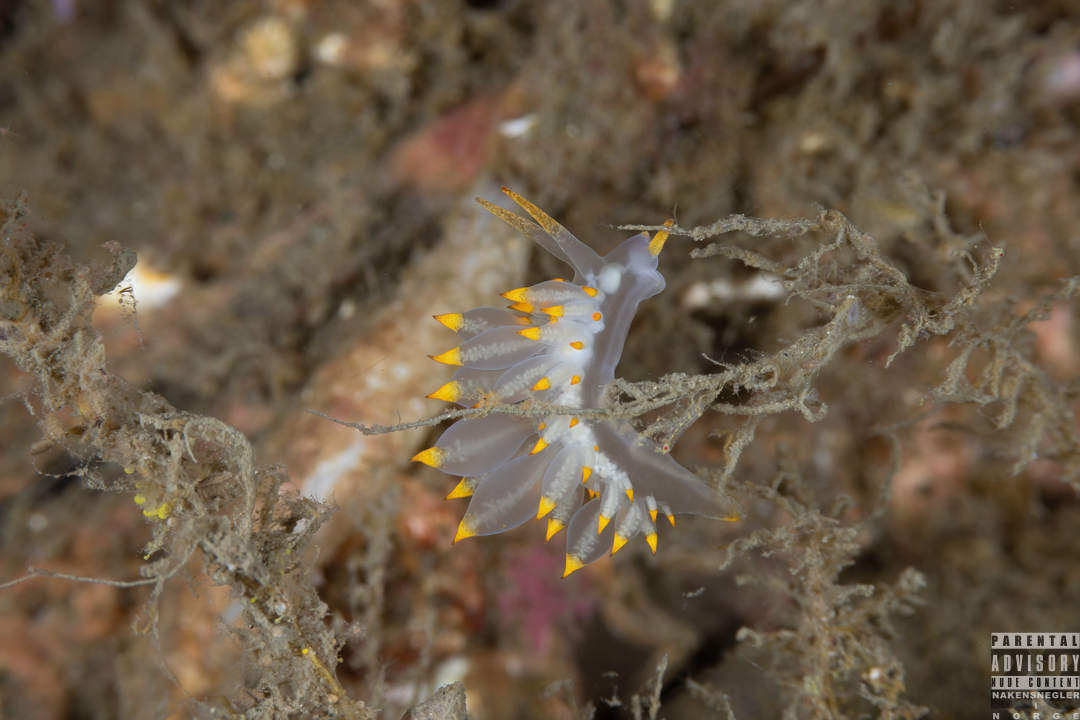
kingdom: Animalia
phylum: Mollusca
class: Gastropoda
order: Nudibranchia
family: Eubranchidae
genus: Amphorina
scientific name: Amphorina farrani
